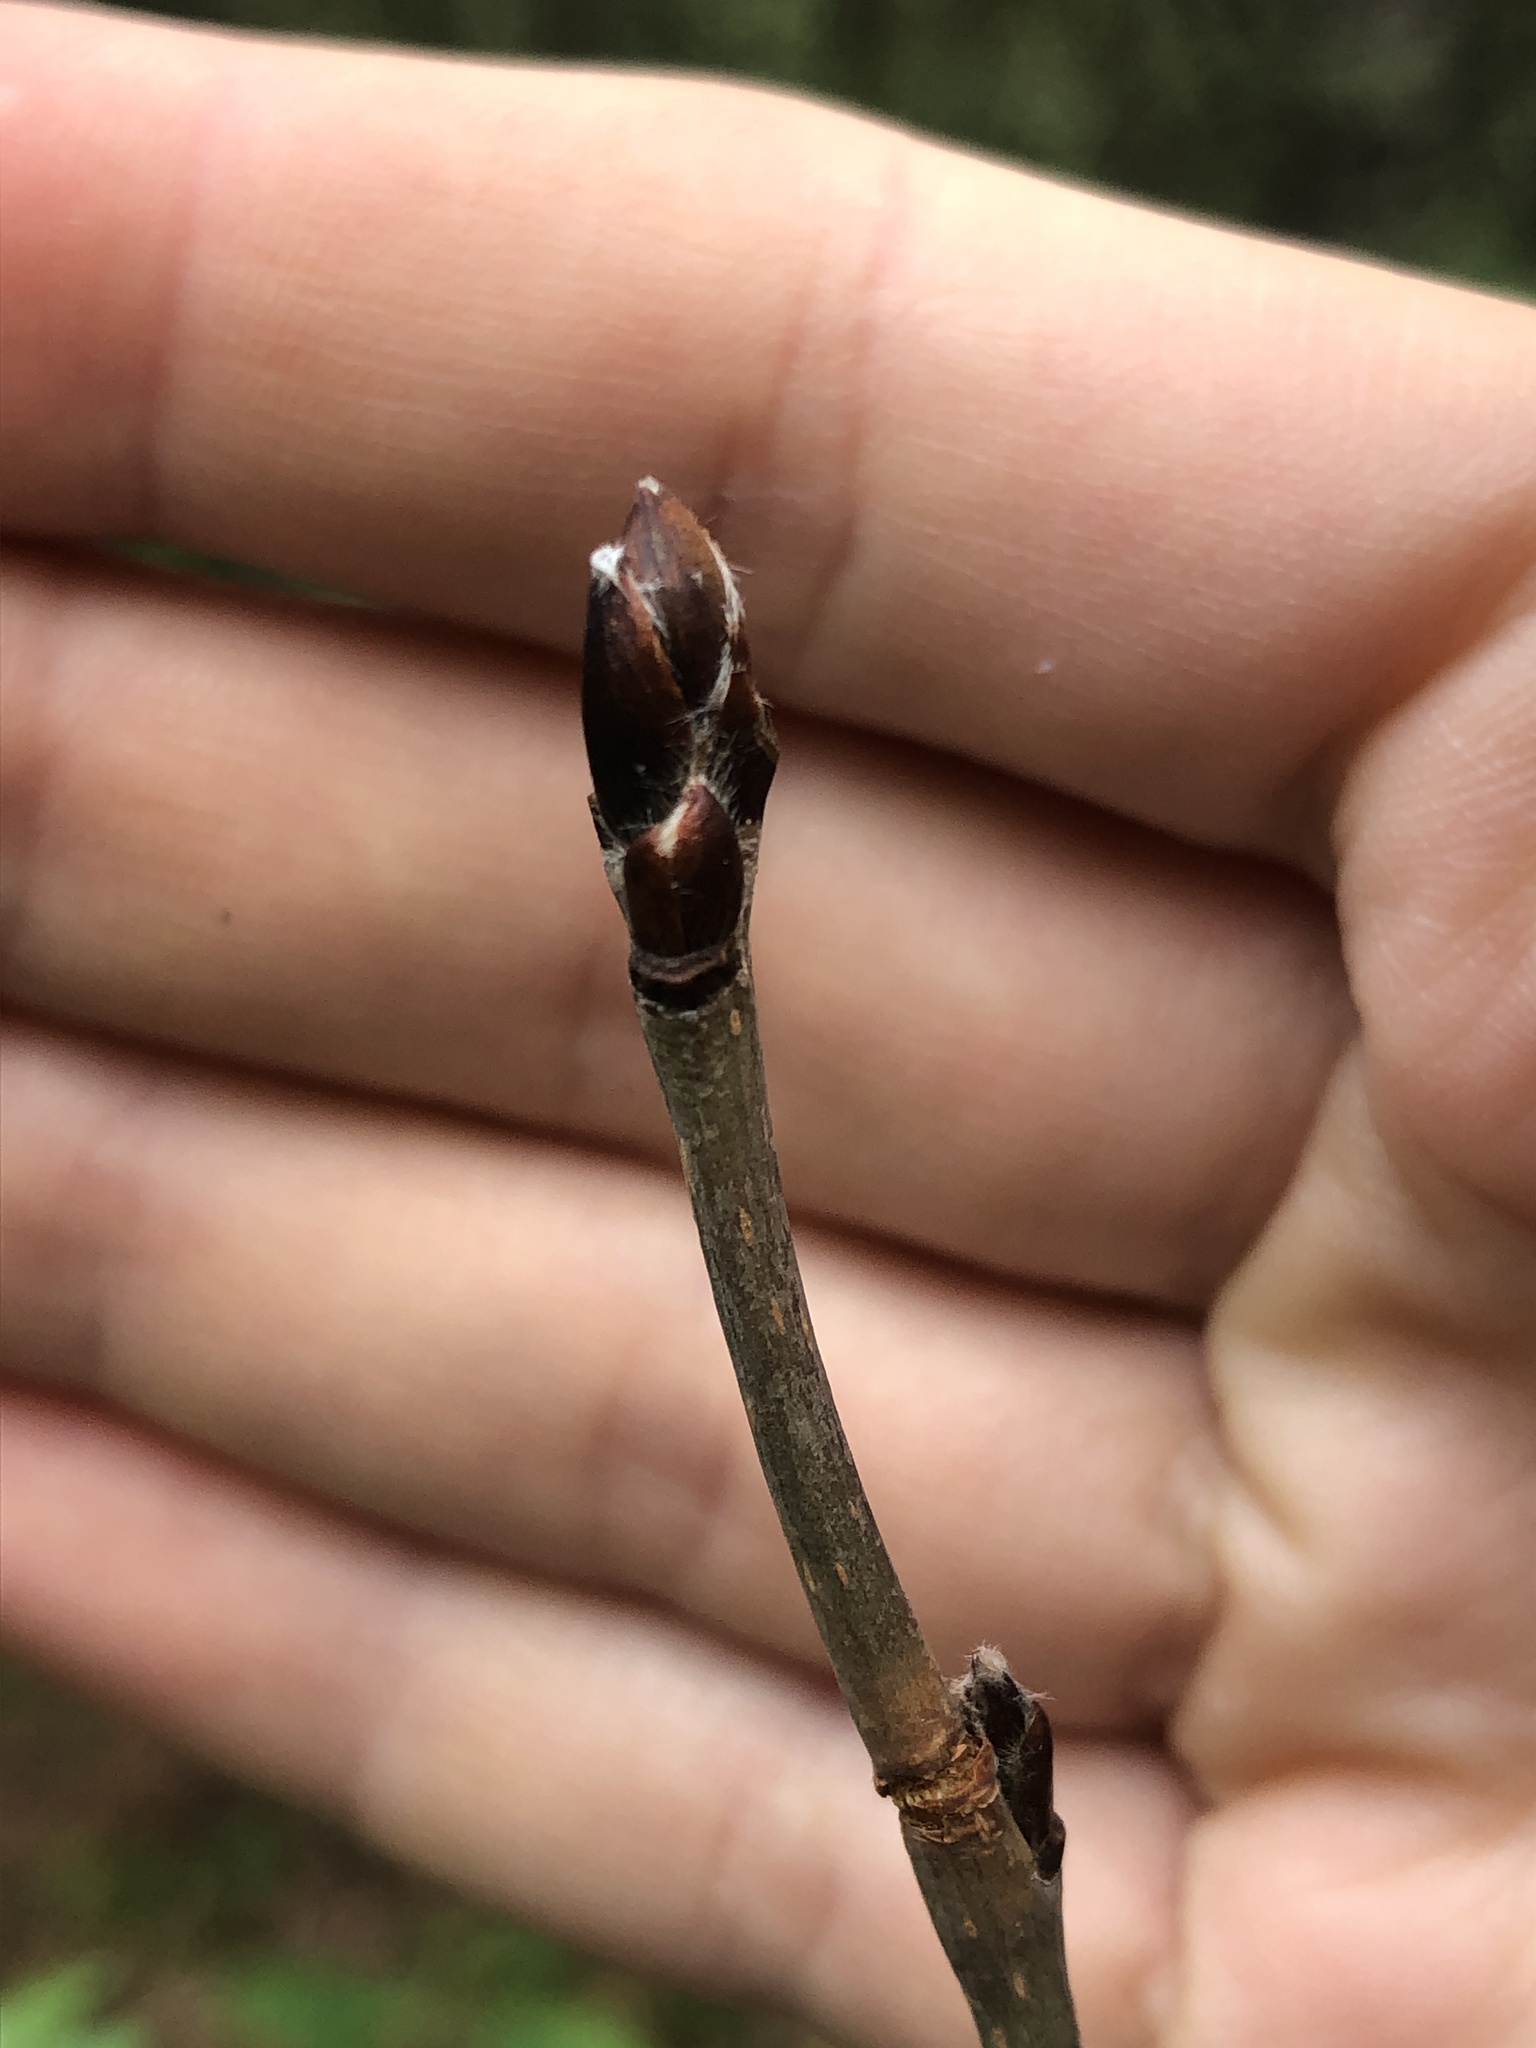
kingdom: Plantae
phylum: Tracheophyta
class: Magnoliopsida
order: Rosales
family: Rosaceae
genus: Sorbus
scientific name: Sorbus americana
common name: American mountain-ash
